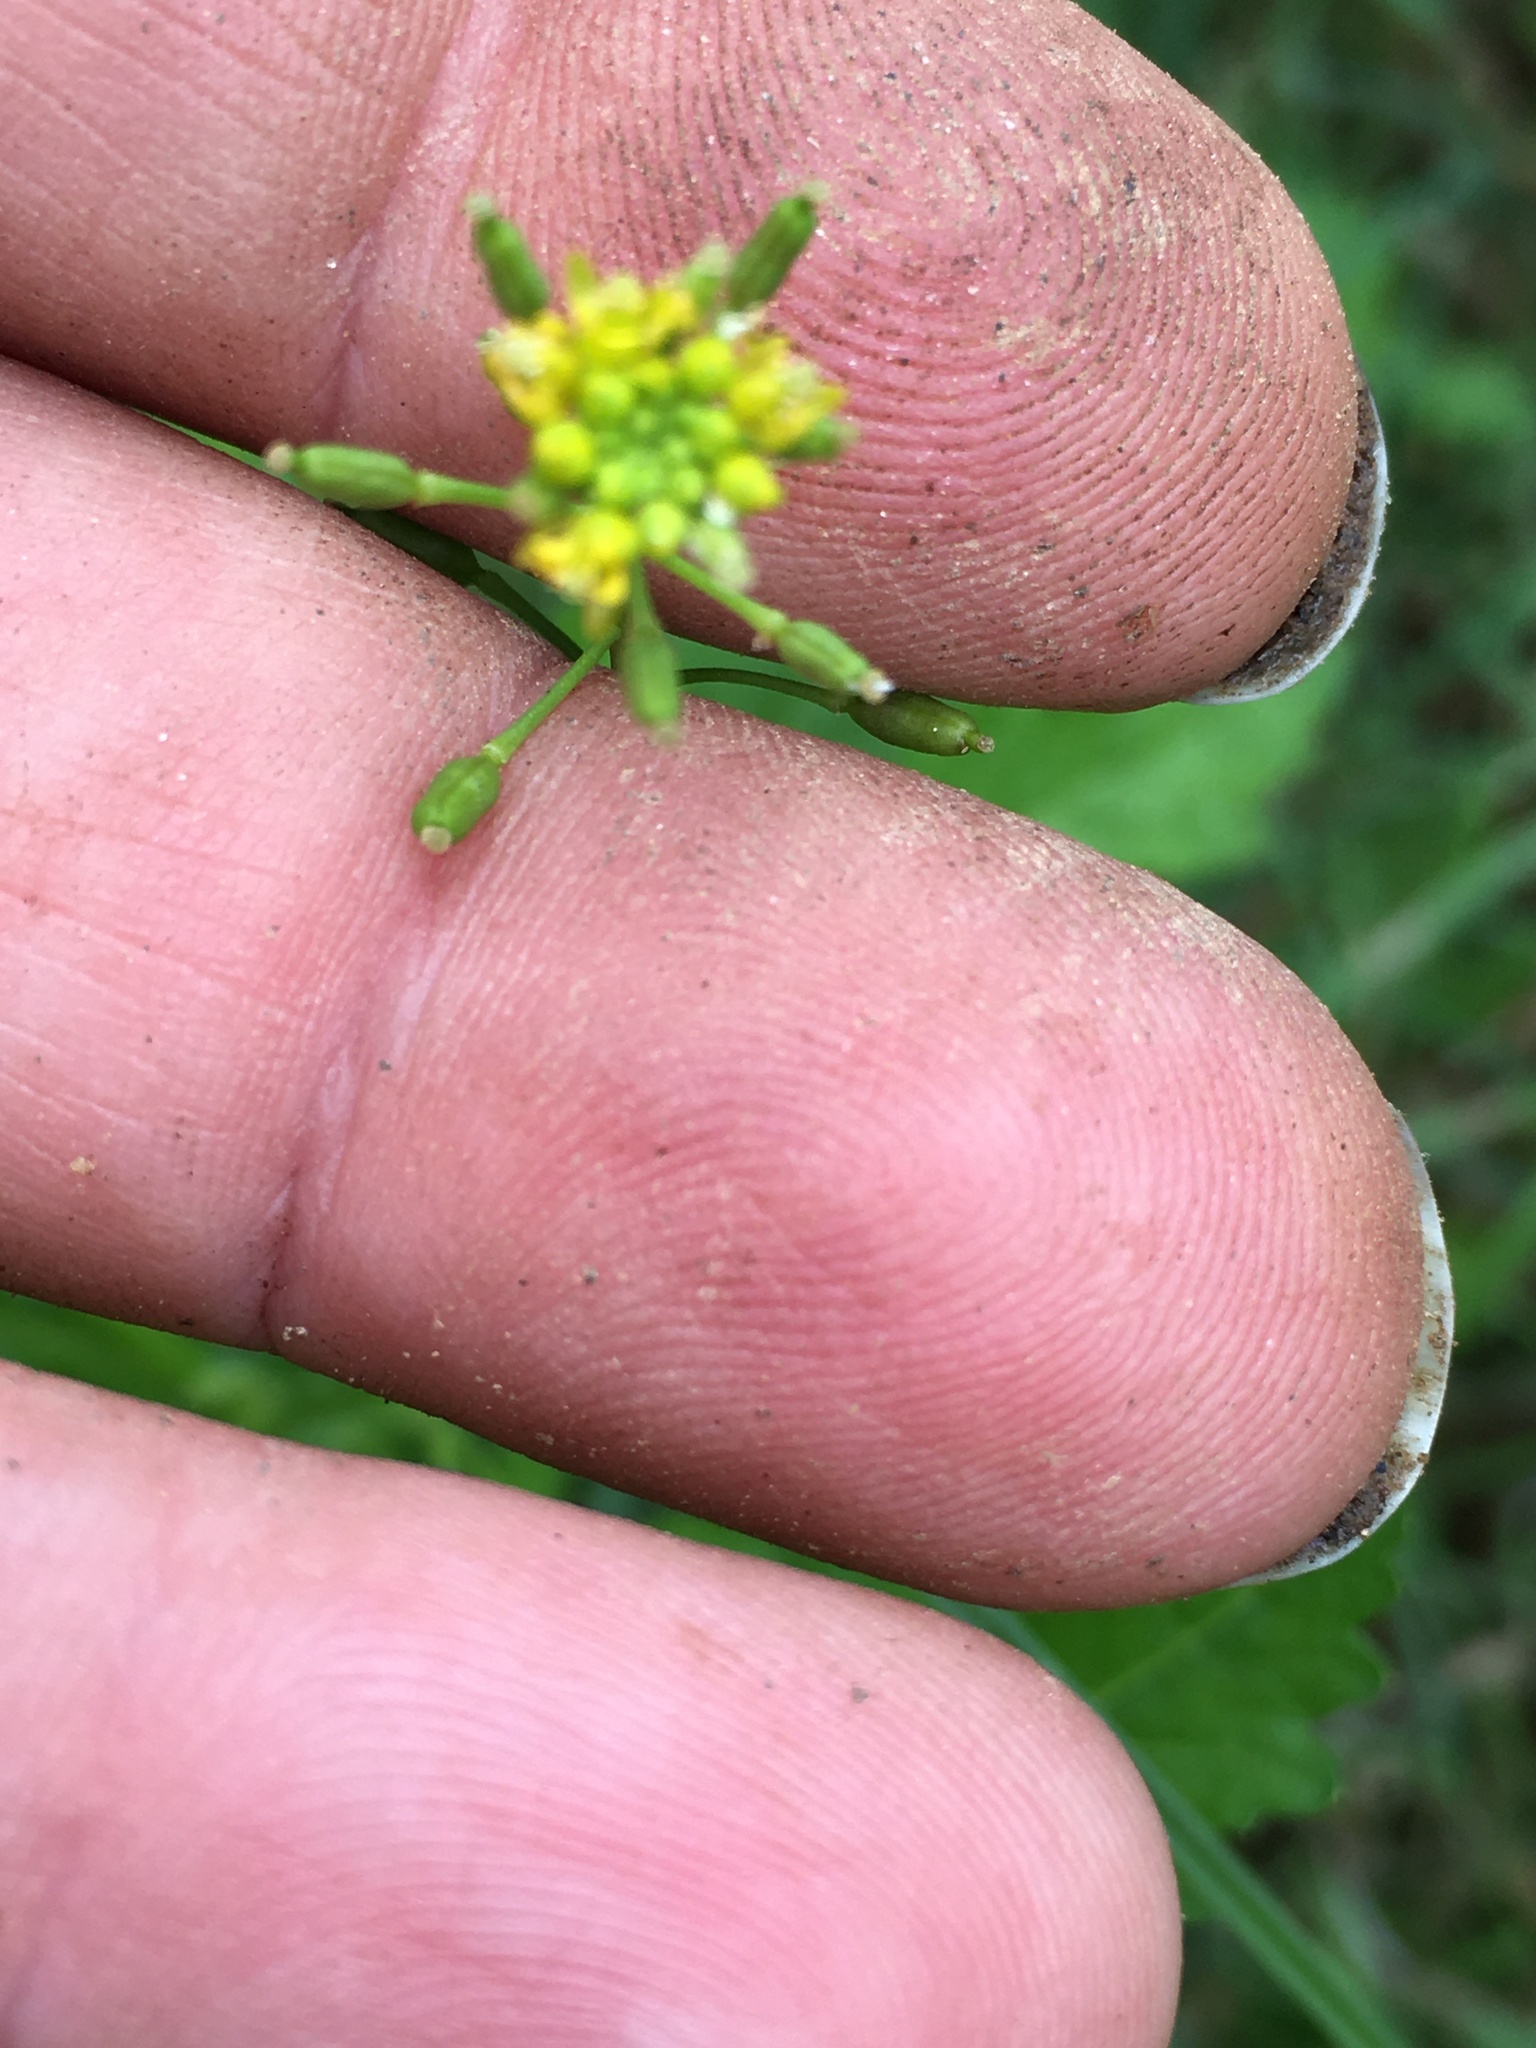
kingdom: Plantae
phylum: Tracheophyta
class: Magnoliopsida
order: Brassicales
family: Brassicaceae
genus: Rorippa
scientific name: Rorippa palustris
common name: Marsh yellow-cress
